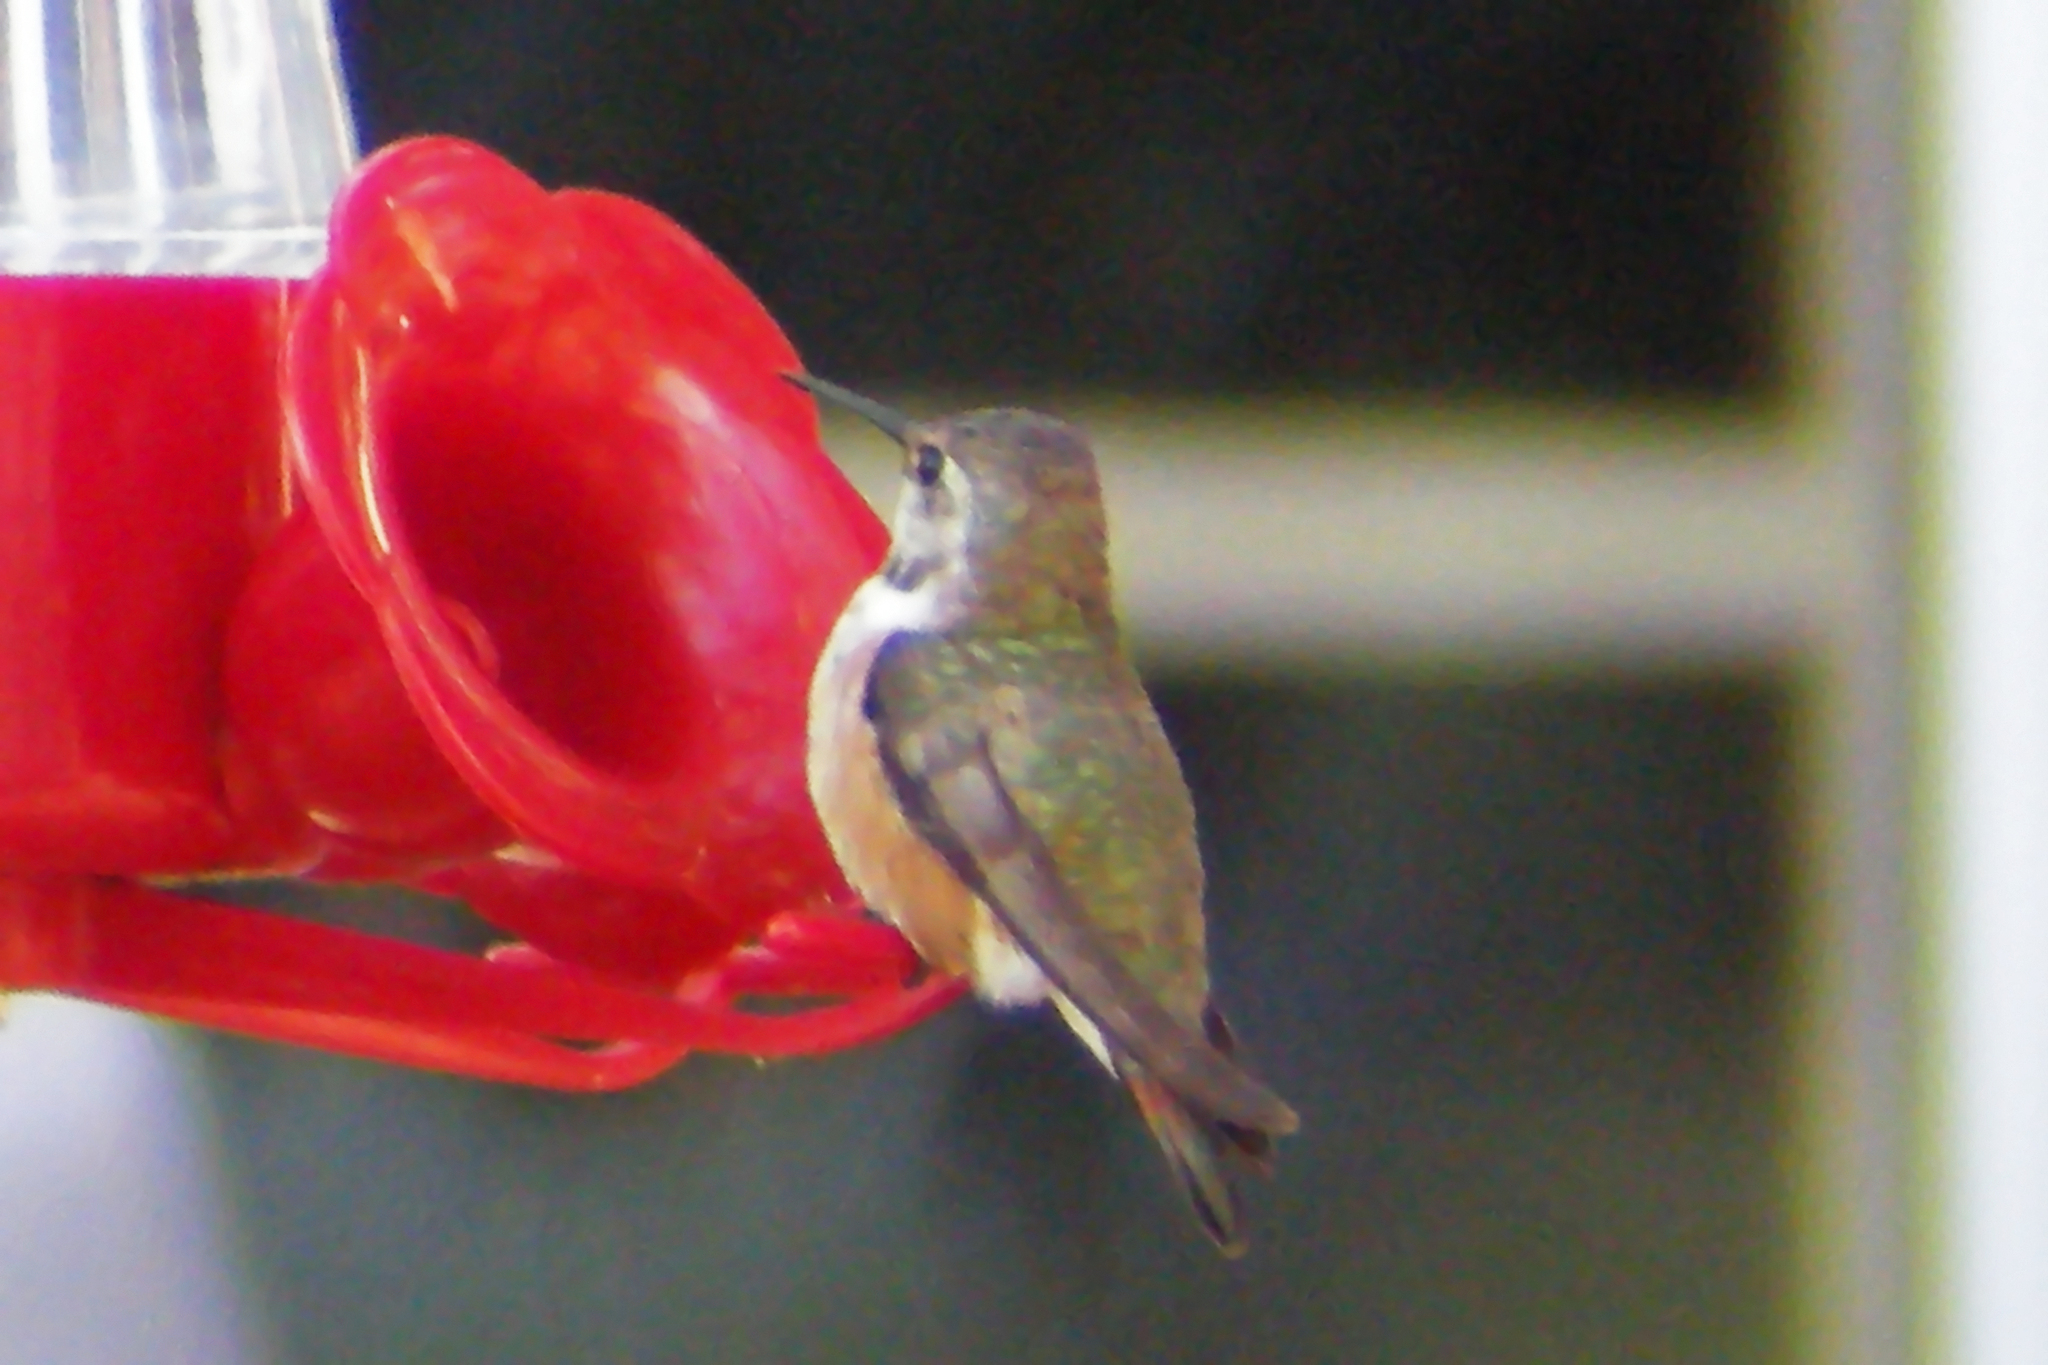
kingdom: Animalia
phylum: Chordata
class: Aves
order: Apodiformes
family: Trochilidae
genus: Selasphorus
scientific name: Selasphorus rufus
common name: Rufous hummingbird
